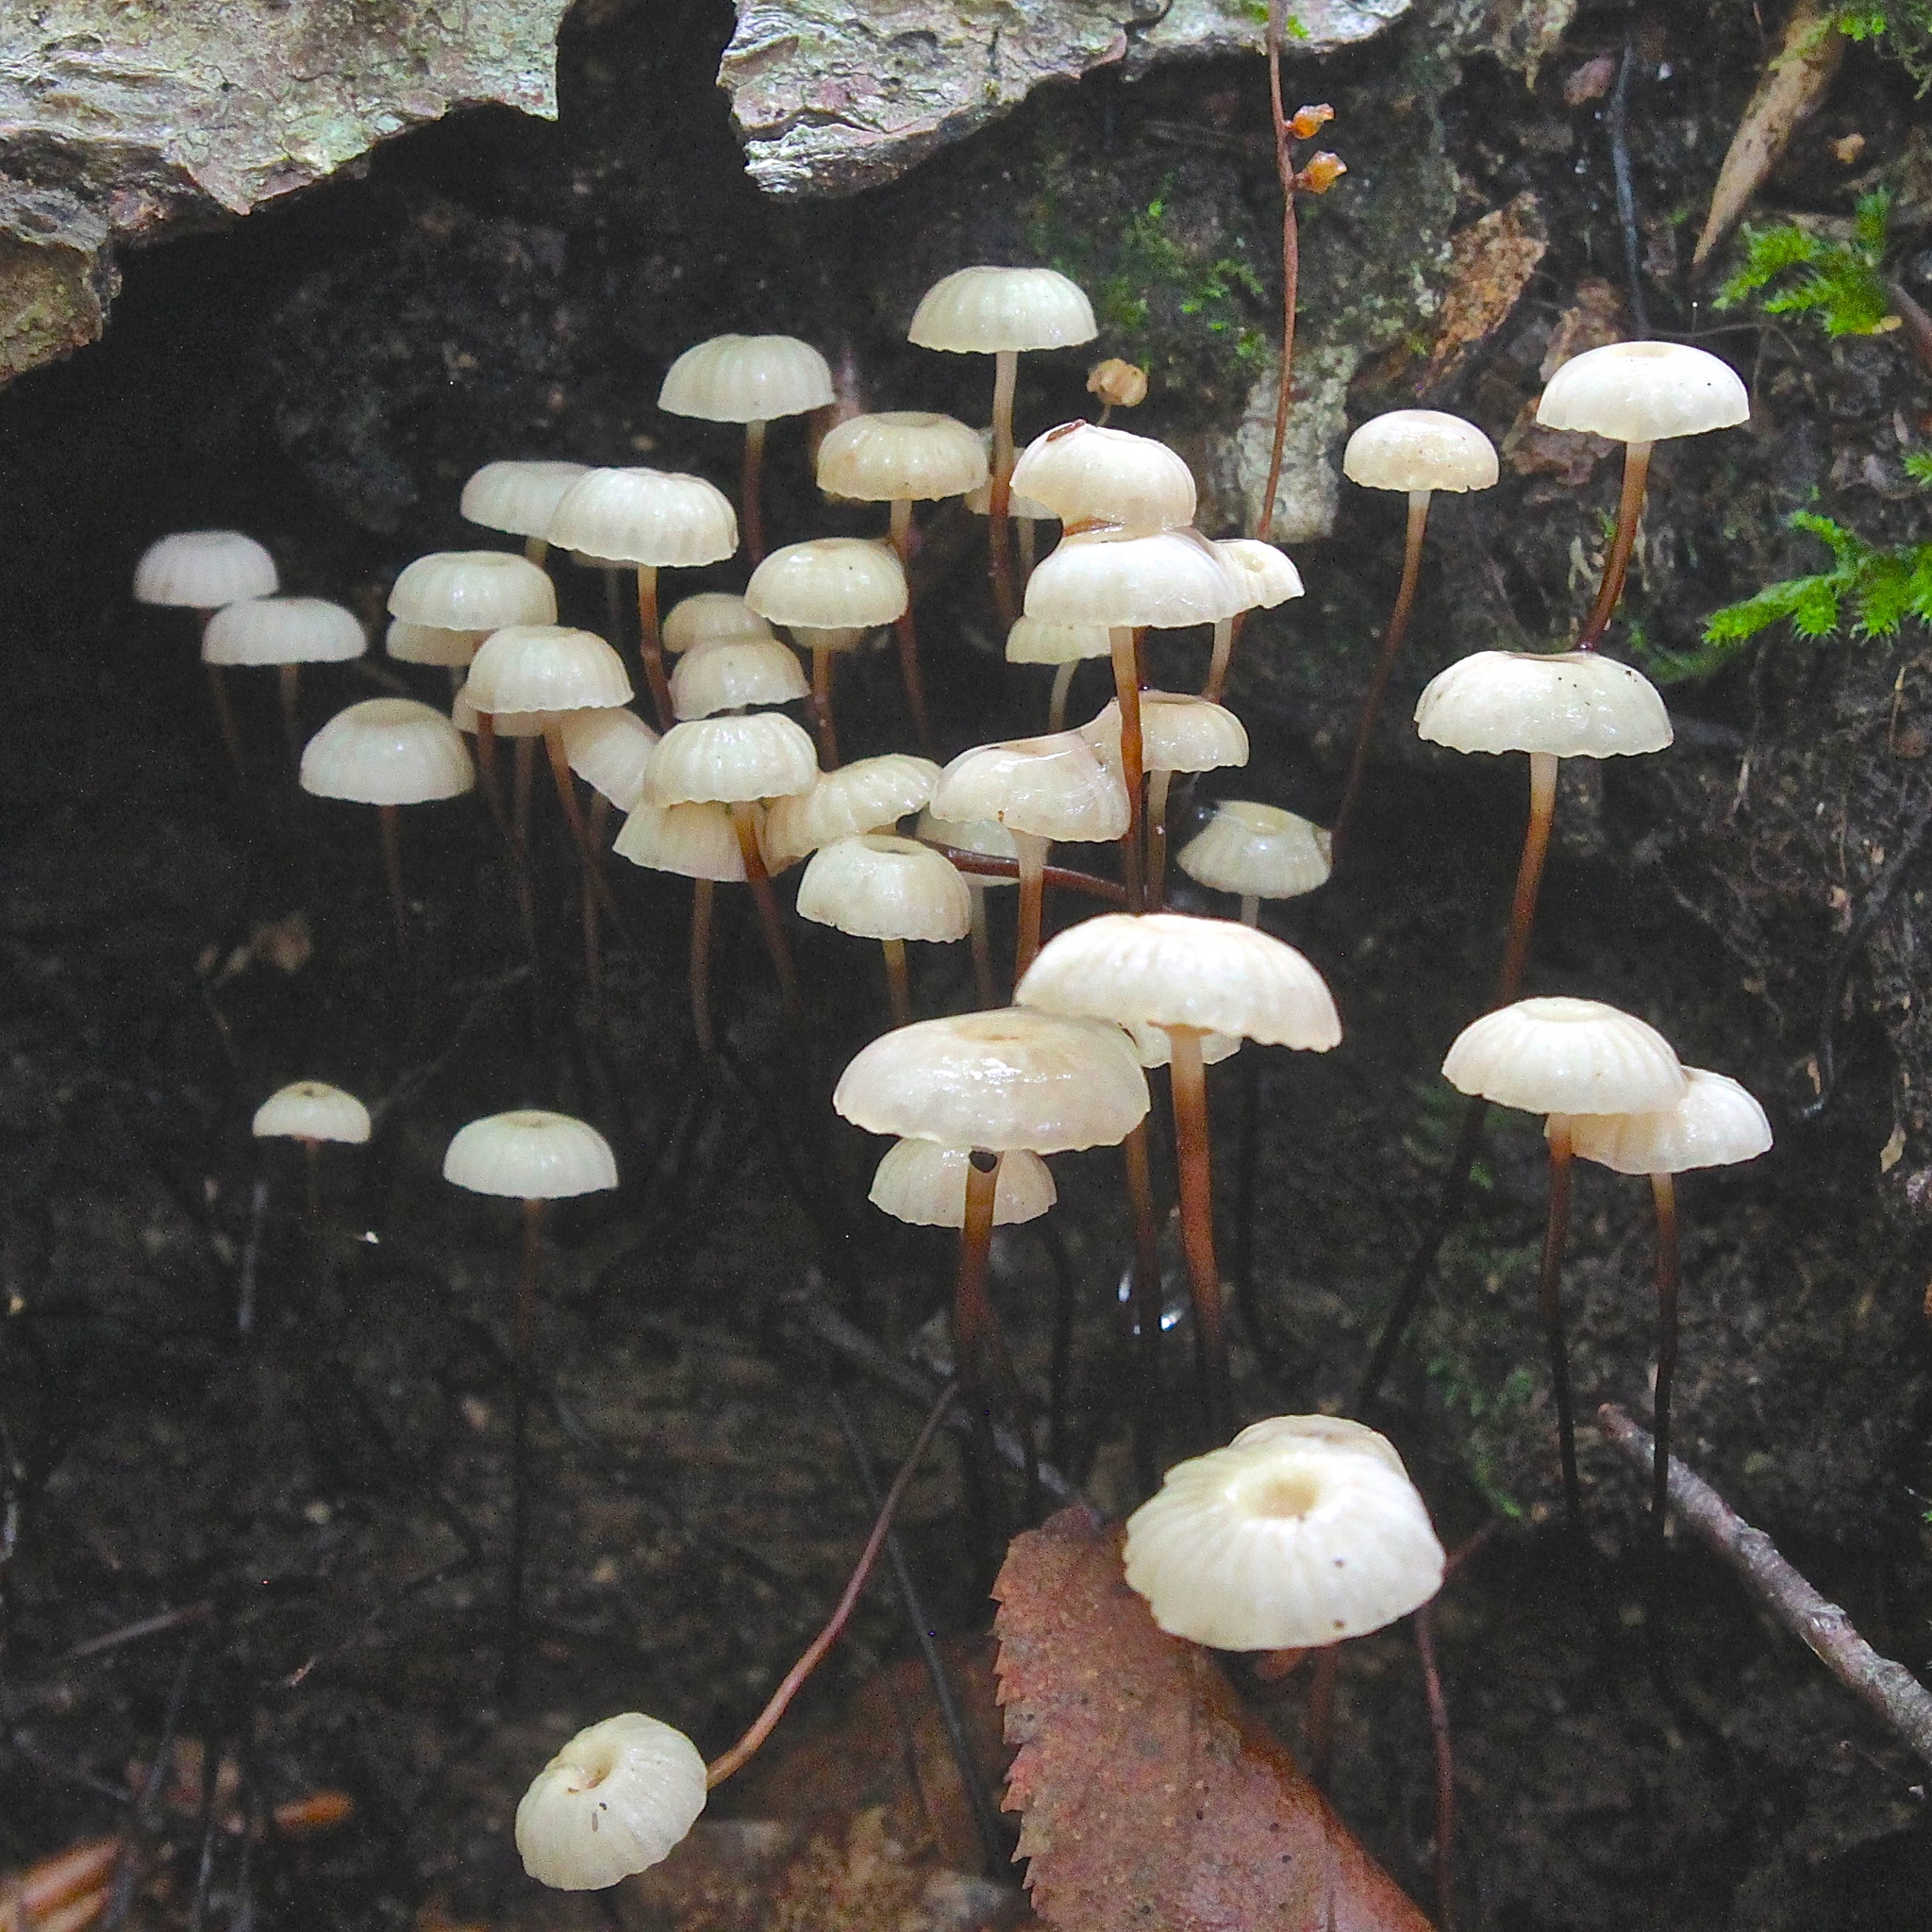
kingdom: Fungi
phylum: Basidiomycota
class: Agaricomycetes
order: Agaricales
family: Marasmiaceae
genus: Marasmius
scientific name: Marasmius rotula
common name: Collared parachute
